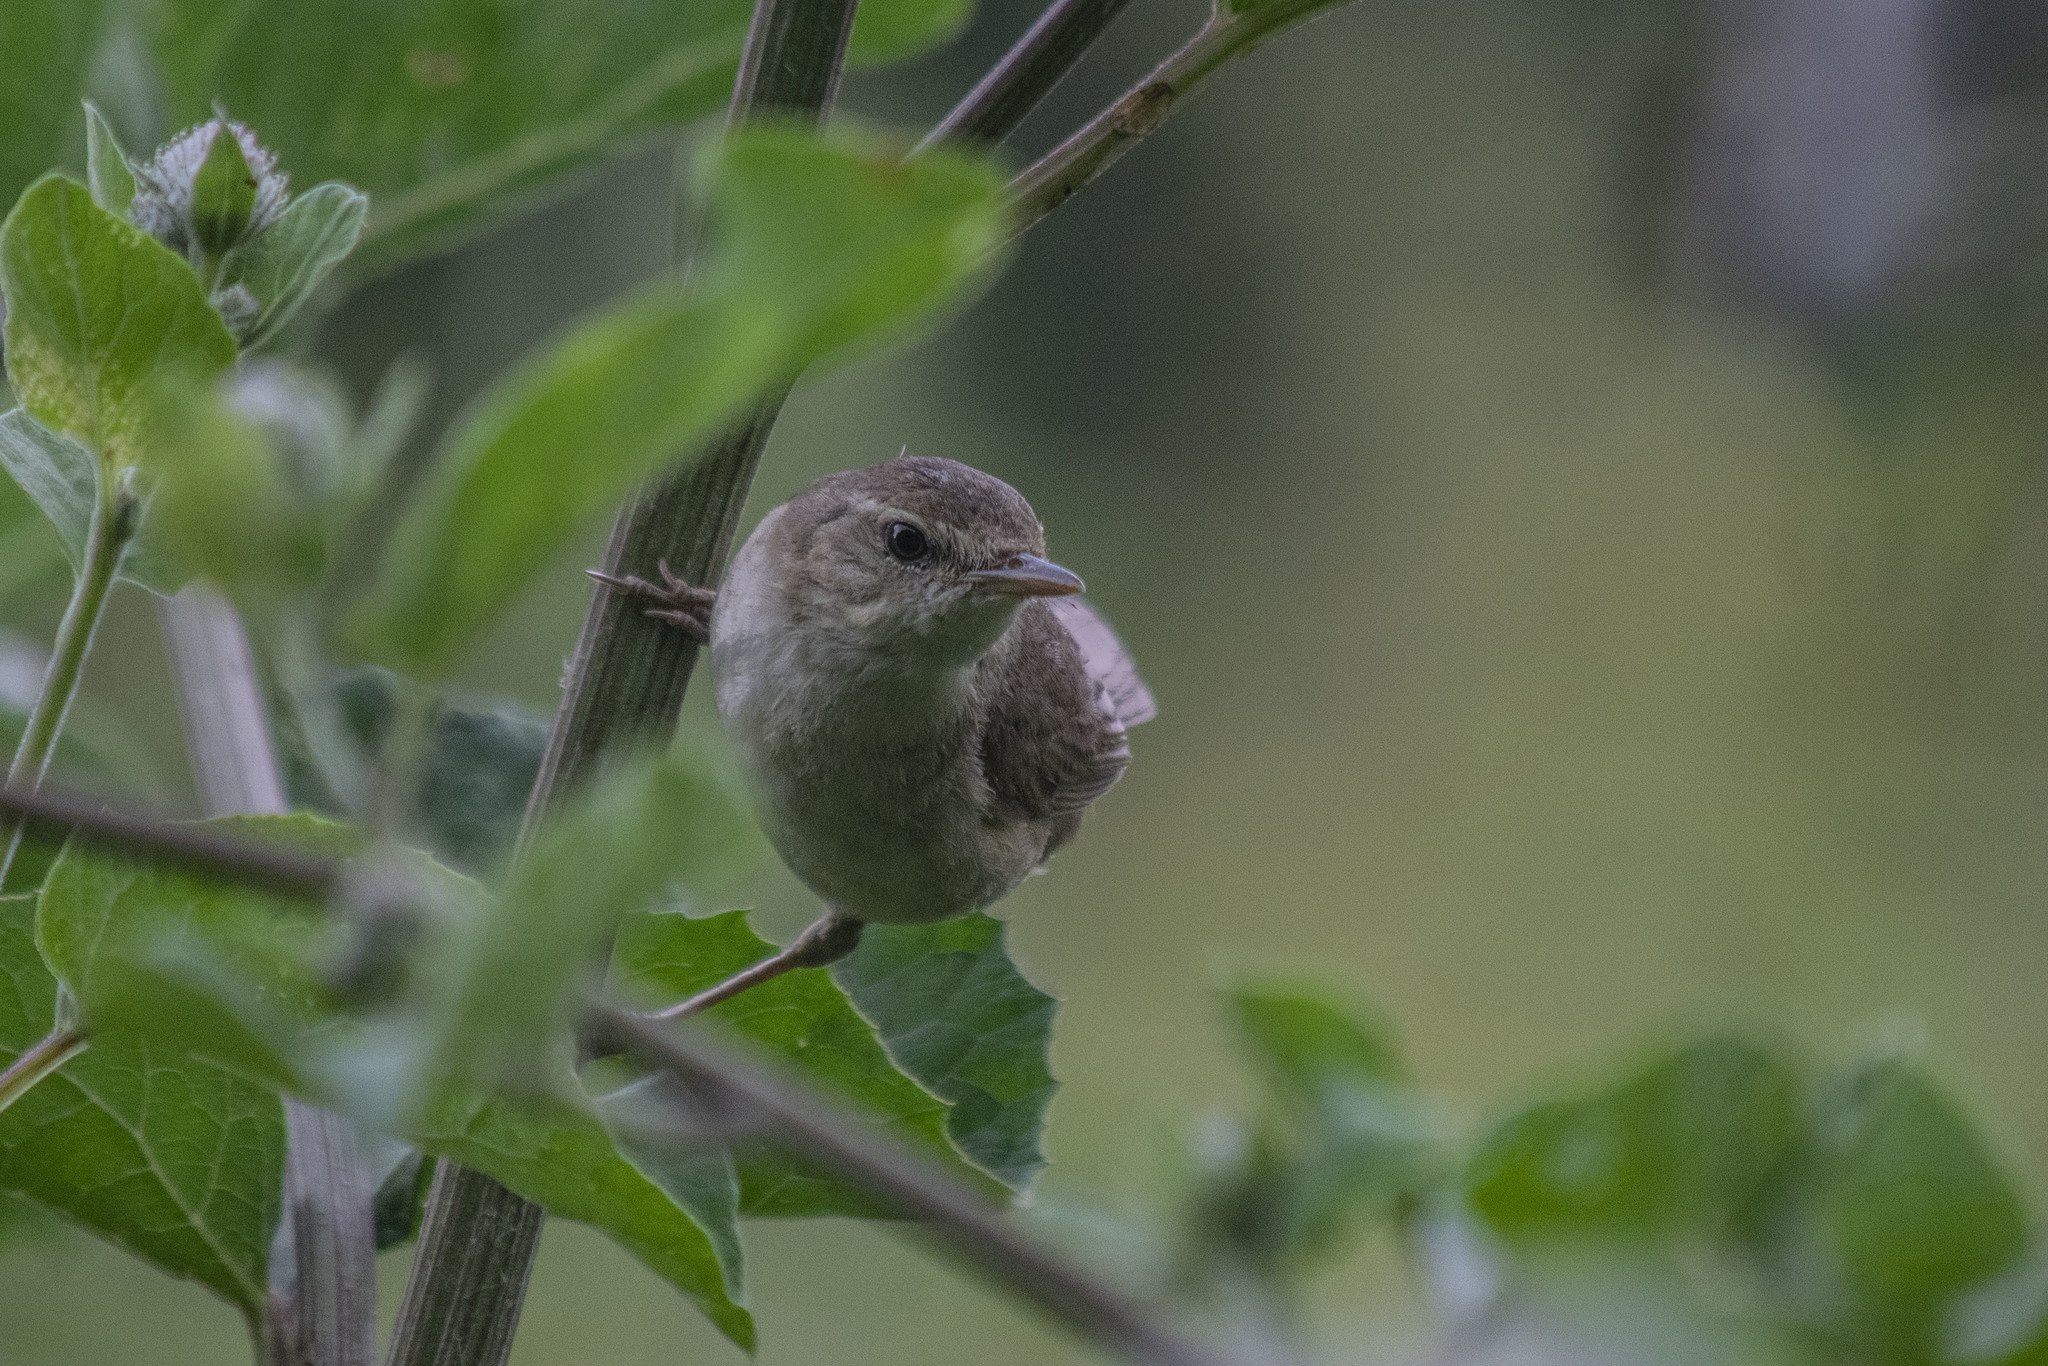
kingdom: Animalia
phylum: Chordata
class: Aves
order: Passeriformes
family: Acrocephalidae
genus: Acrocephalus
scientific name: Acrocephalus dumetorum
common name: Blyth's reed warbler
